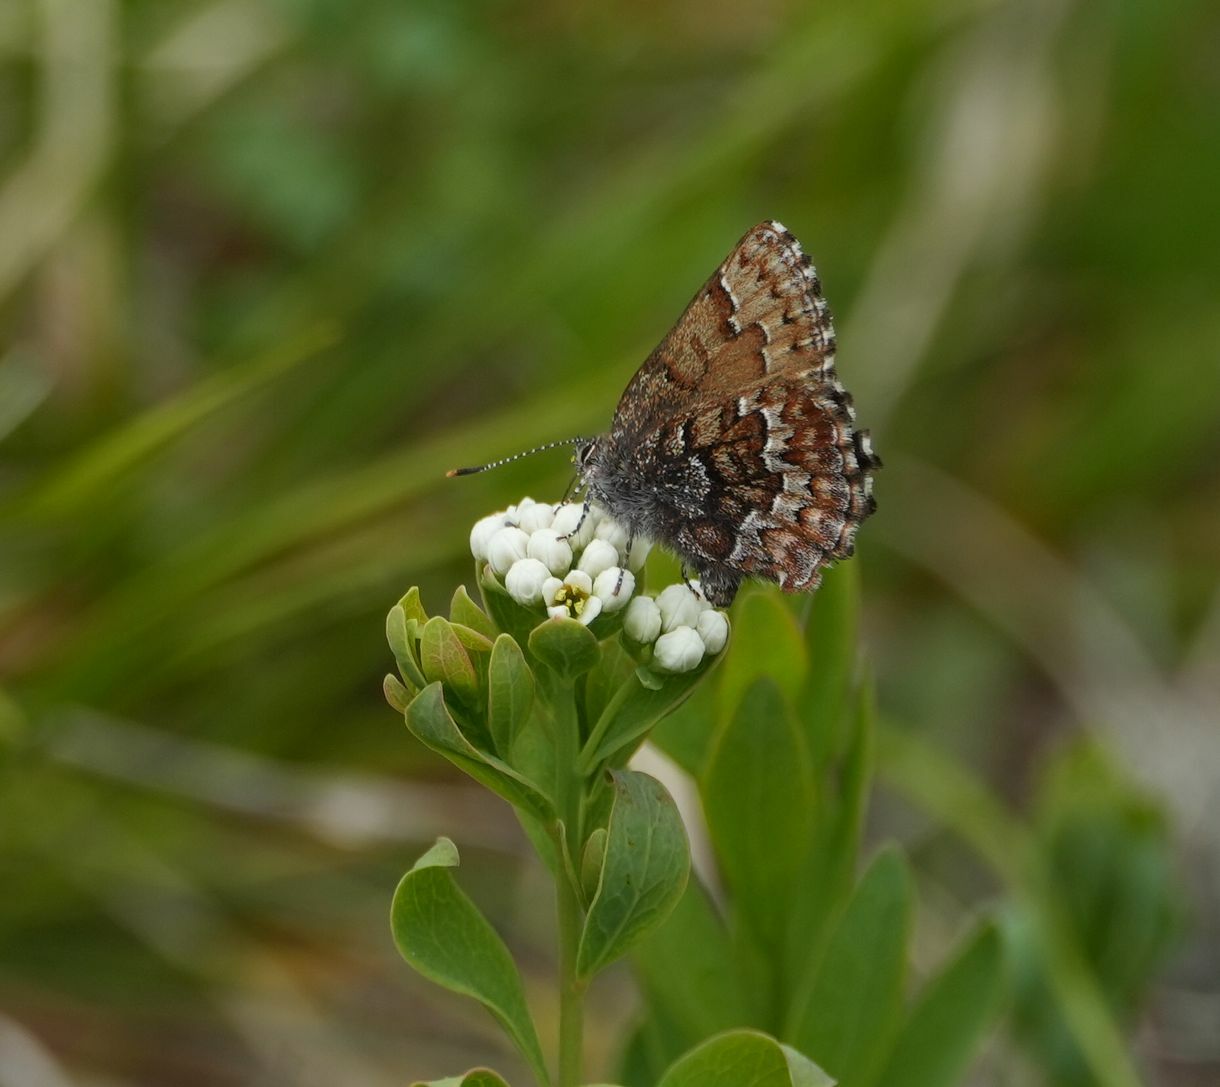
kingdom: Animalia
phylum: Arthropoda
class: Insecta
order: Lepidoptera
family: Lycaenidae
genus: Incisalia
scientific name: Incisalia niphon
